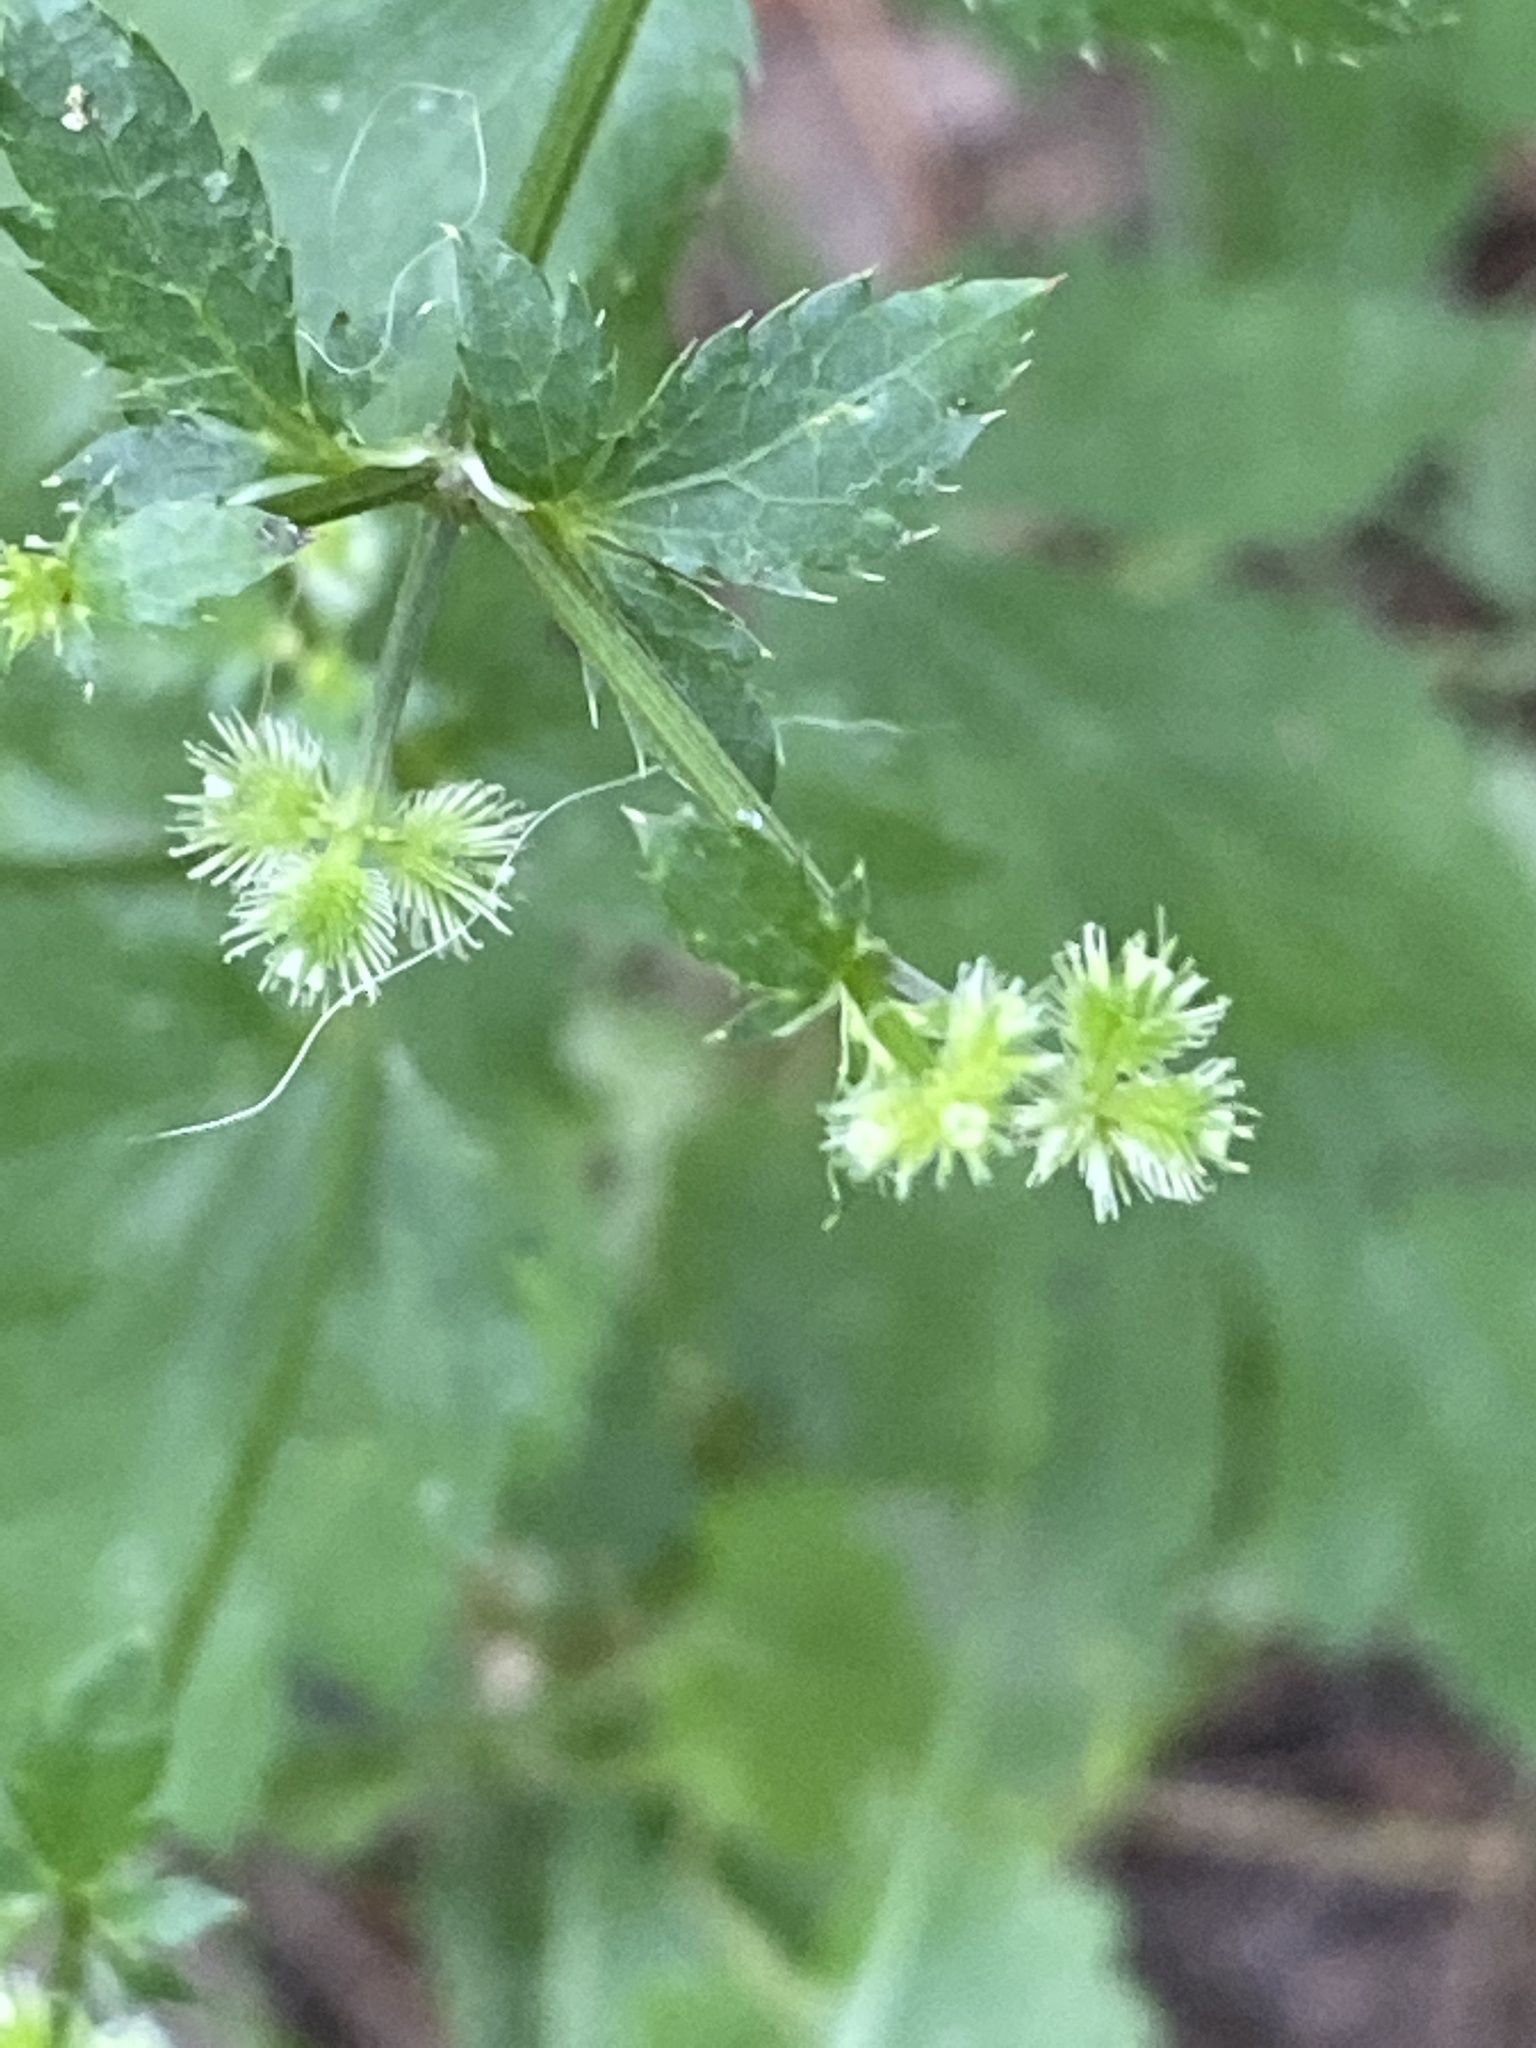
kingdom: Plantae
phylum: Tracheophyta
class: Magnoliopsida
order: Apiales
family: Apiaceae
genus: Sanicula
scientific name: Sanicula canadensis
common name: Canada sanicle
